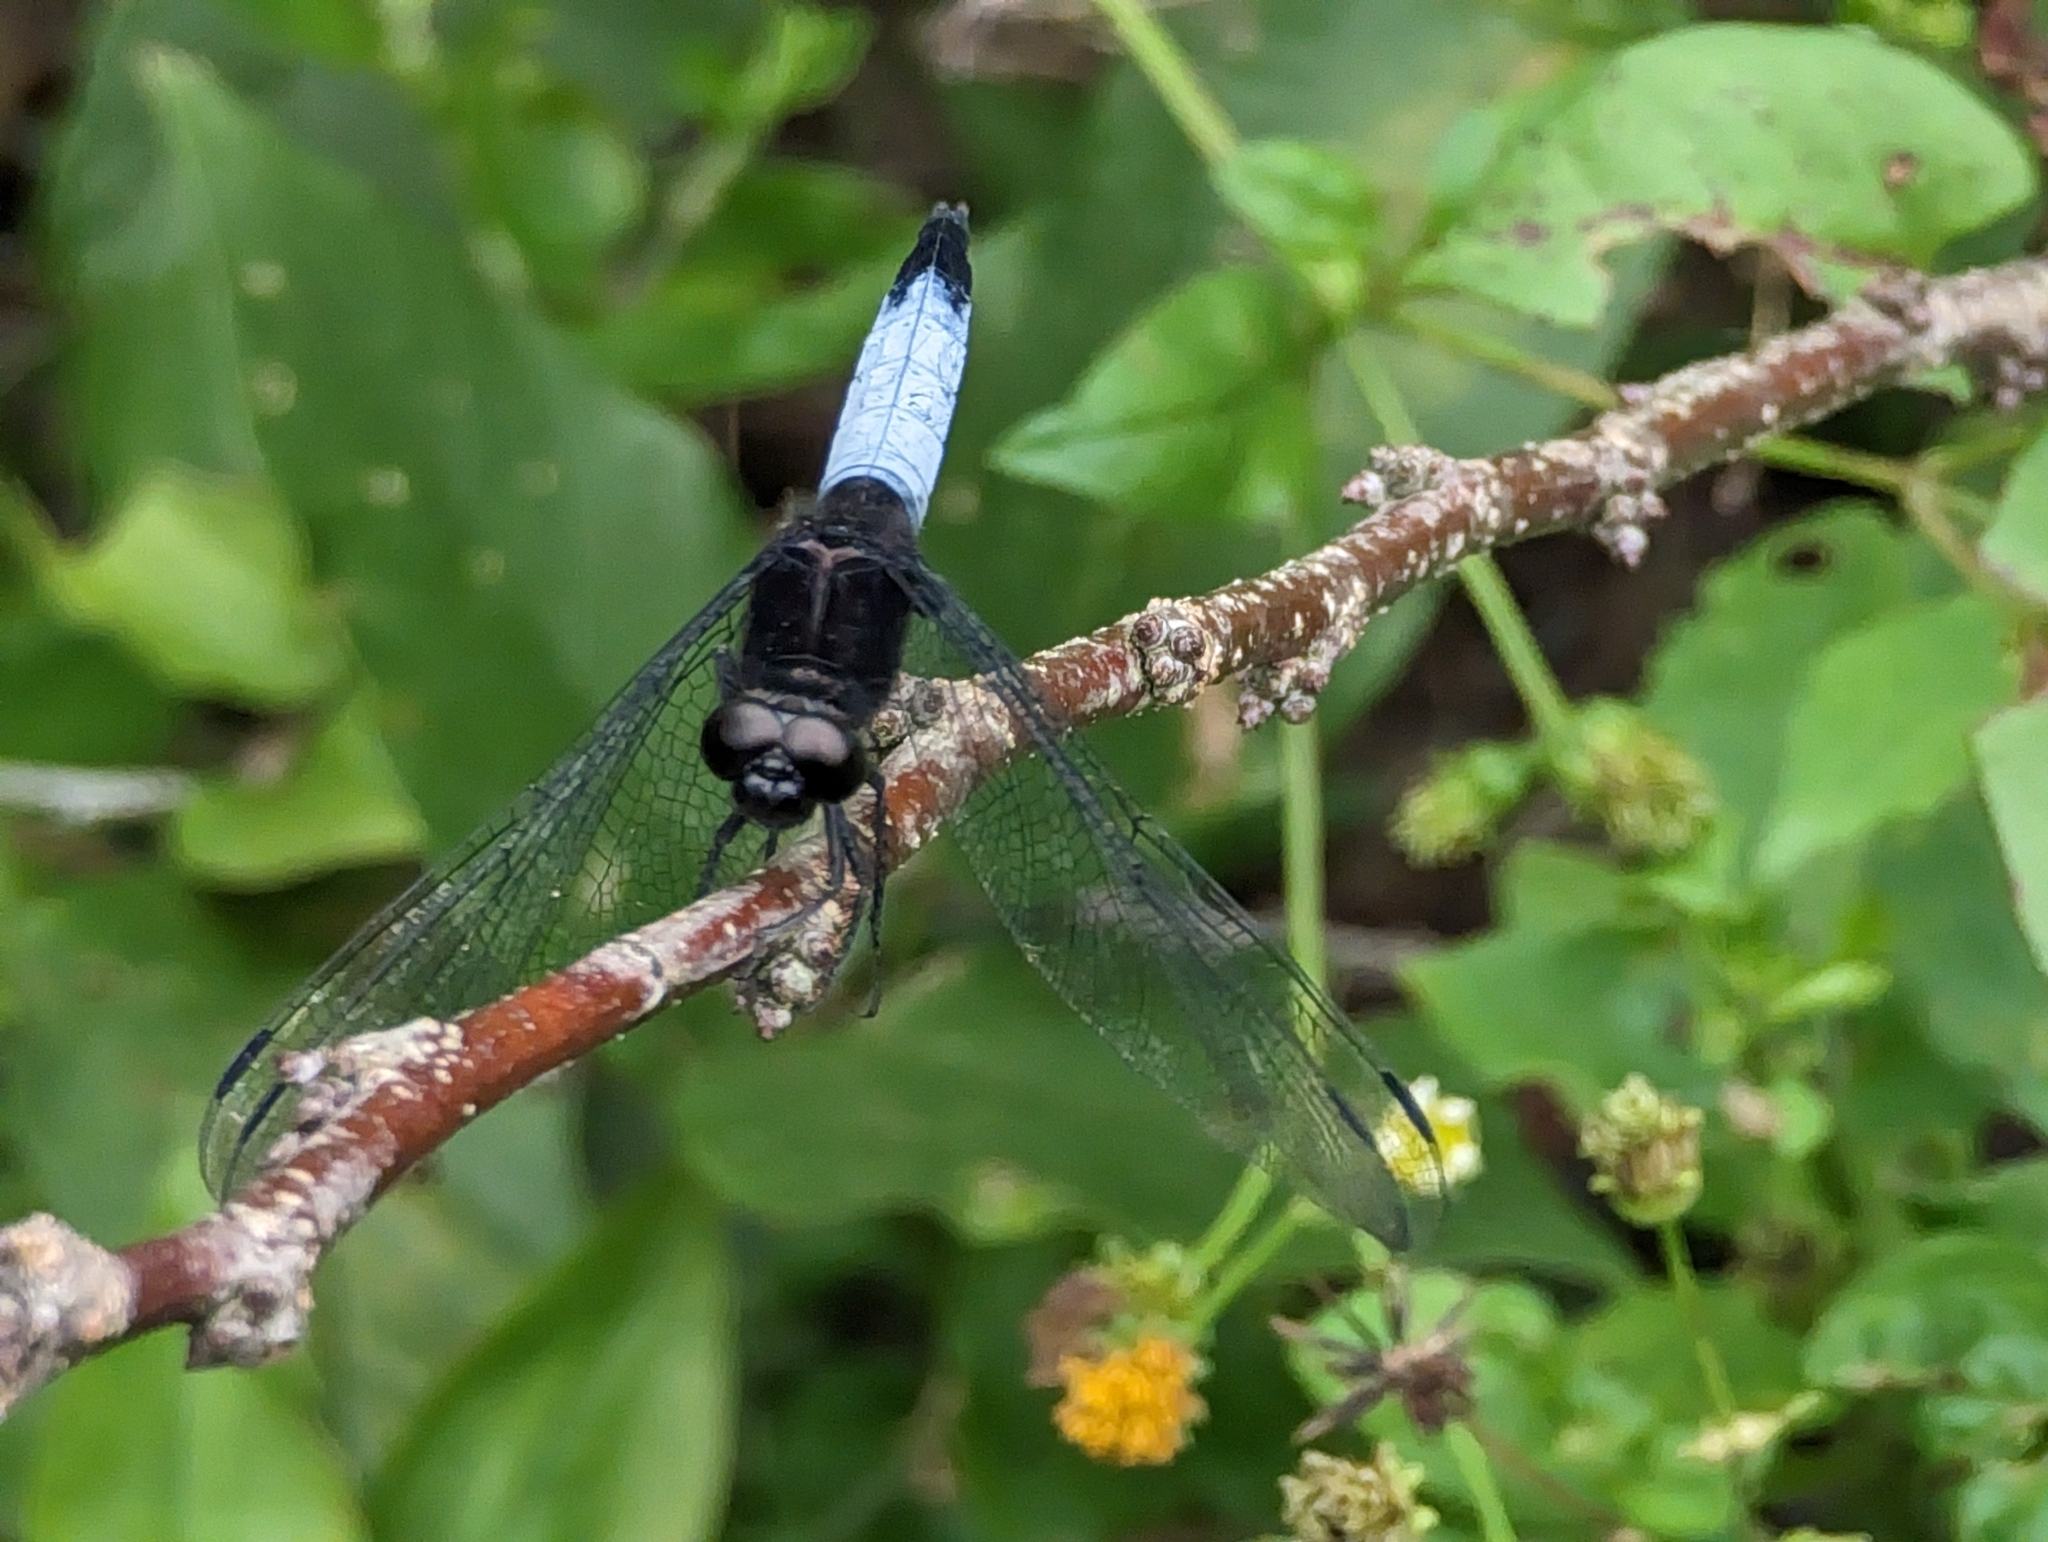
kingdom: Animalia
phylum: Arthropoda
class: Insecta
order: Odonata
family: Libellulidae
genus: Orthetrum
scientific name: Orthetrum triangulare
